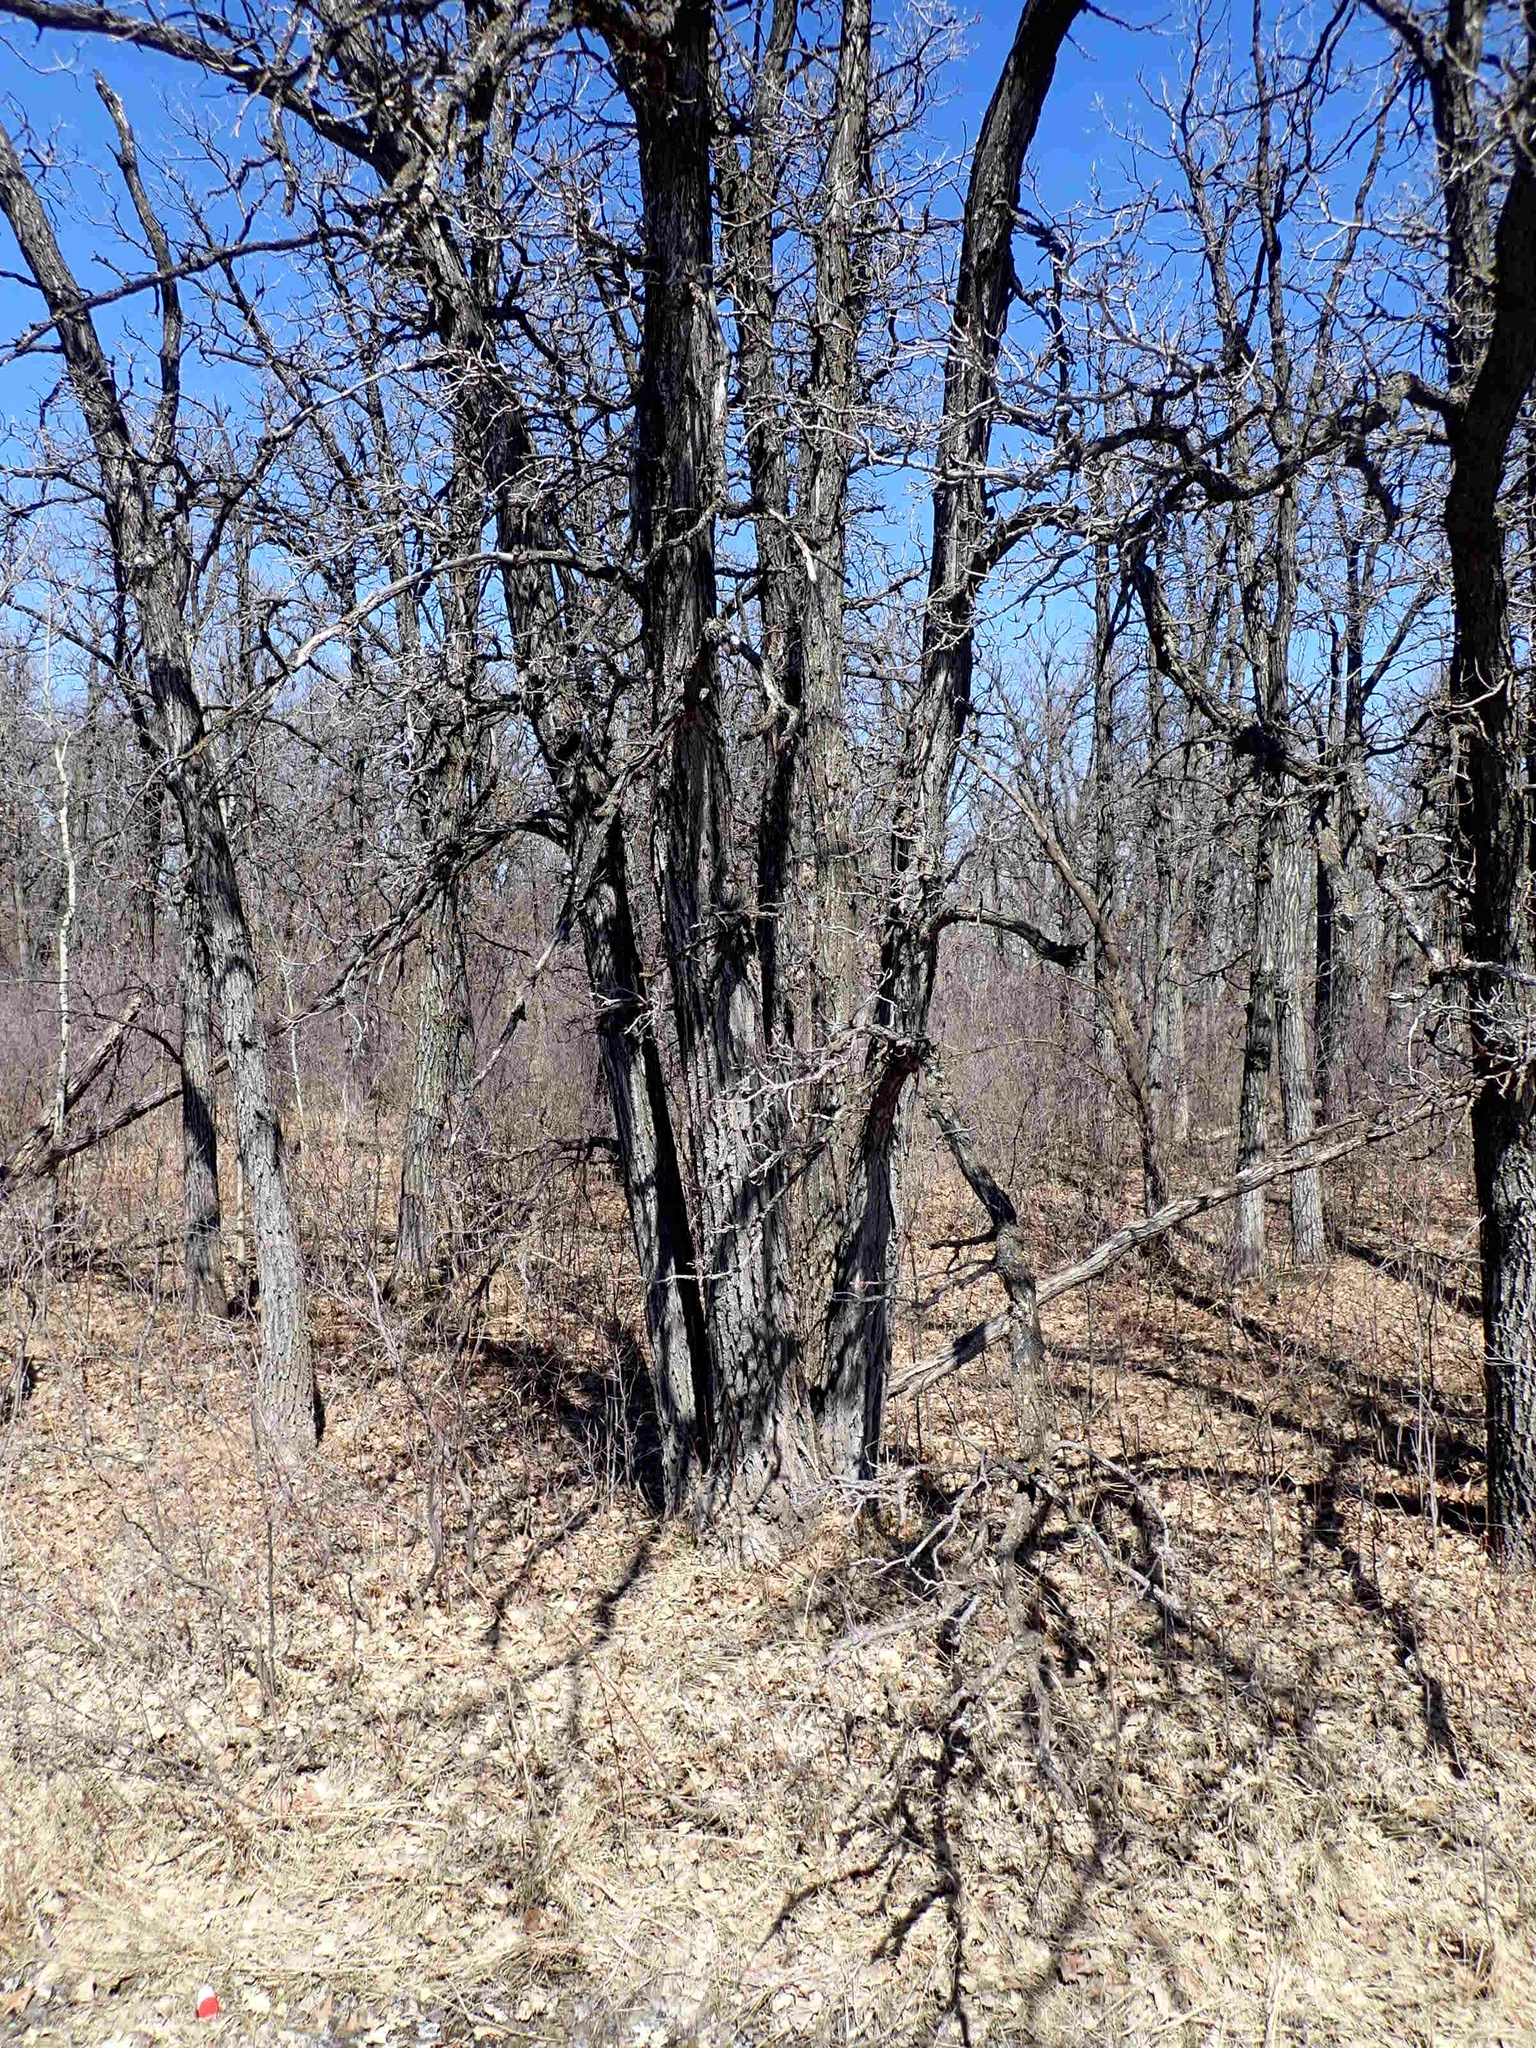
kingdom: Plantae
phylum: Tracheophyta
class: Magnoliopsida
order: Fagales
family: Fagaceae
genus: Quercus
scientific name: Quercus macrocarpa
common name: Bur oak
